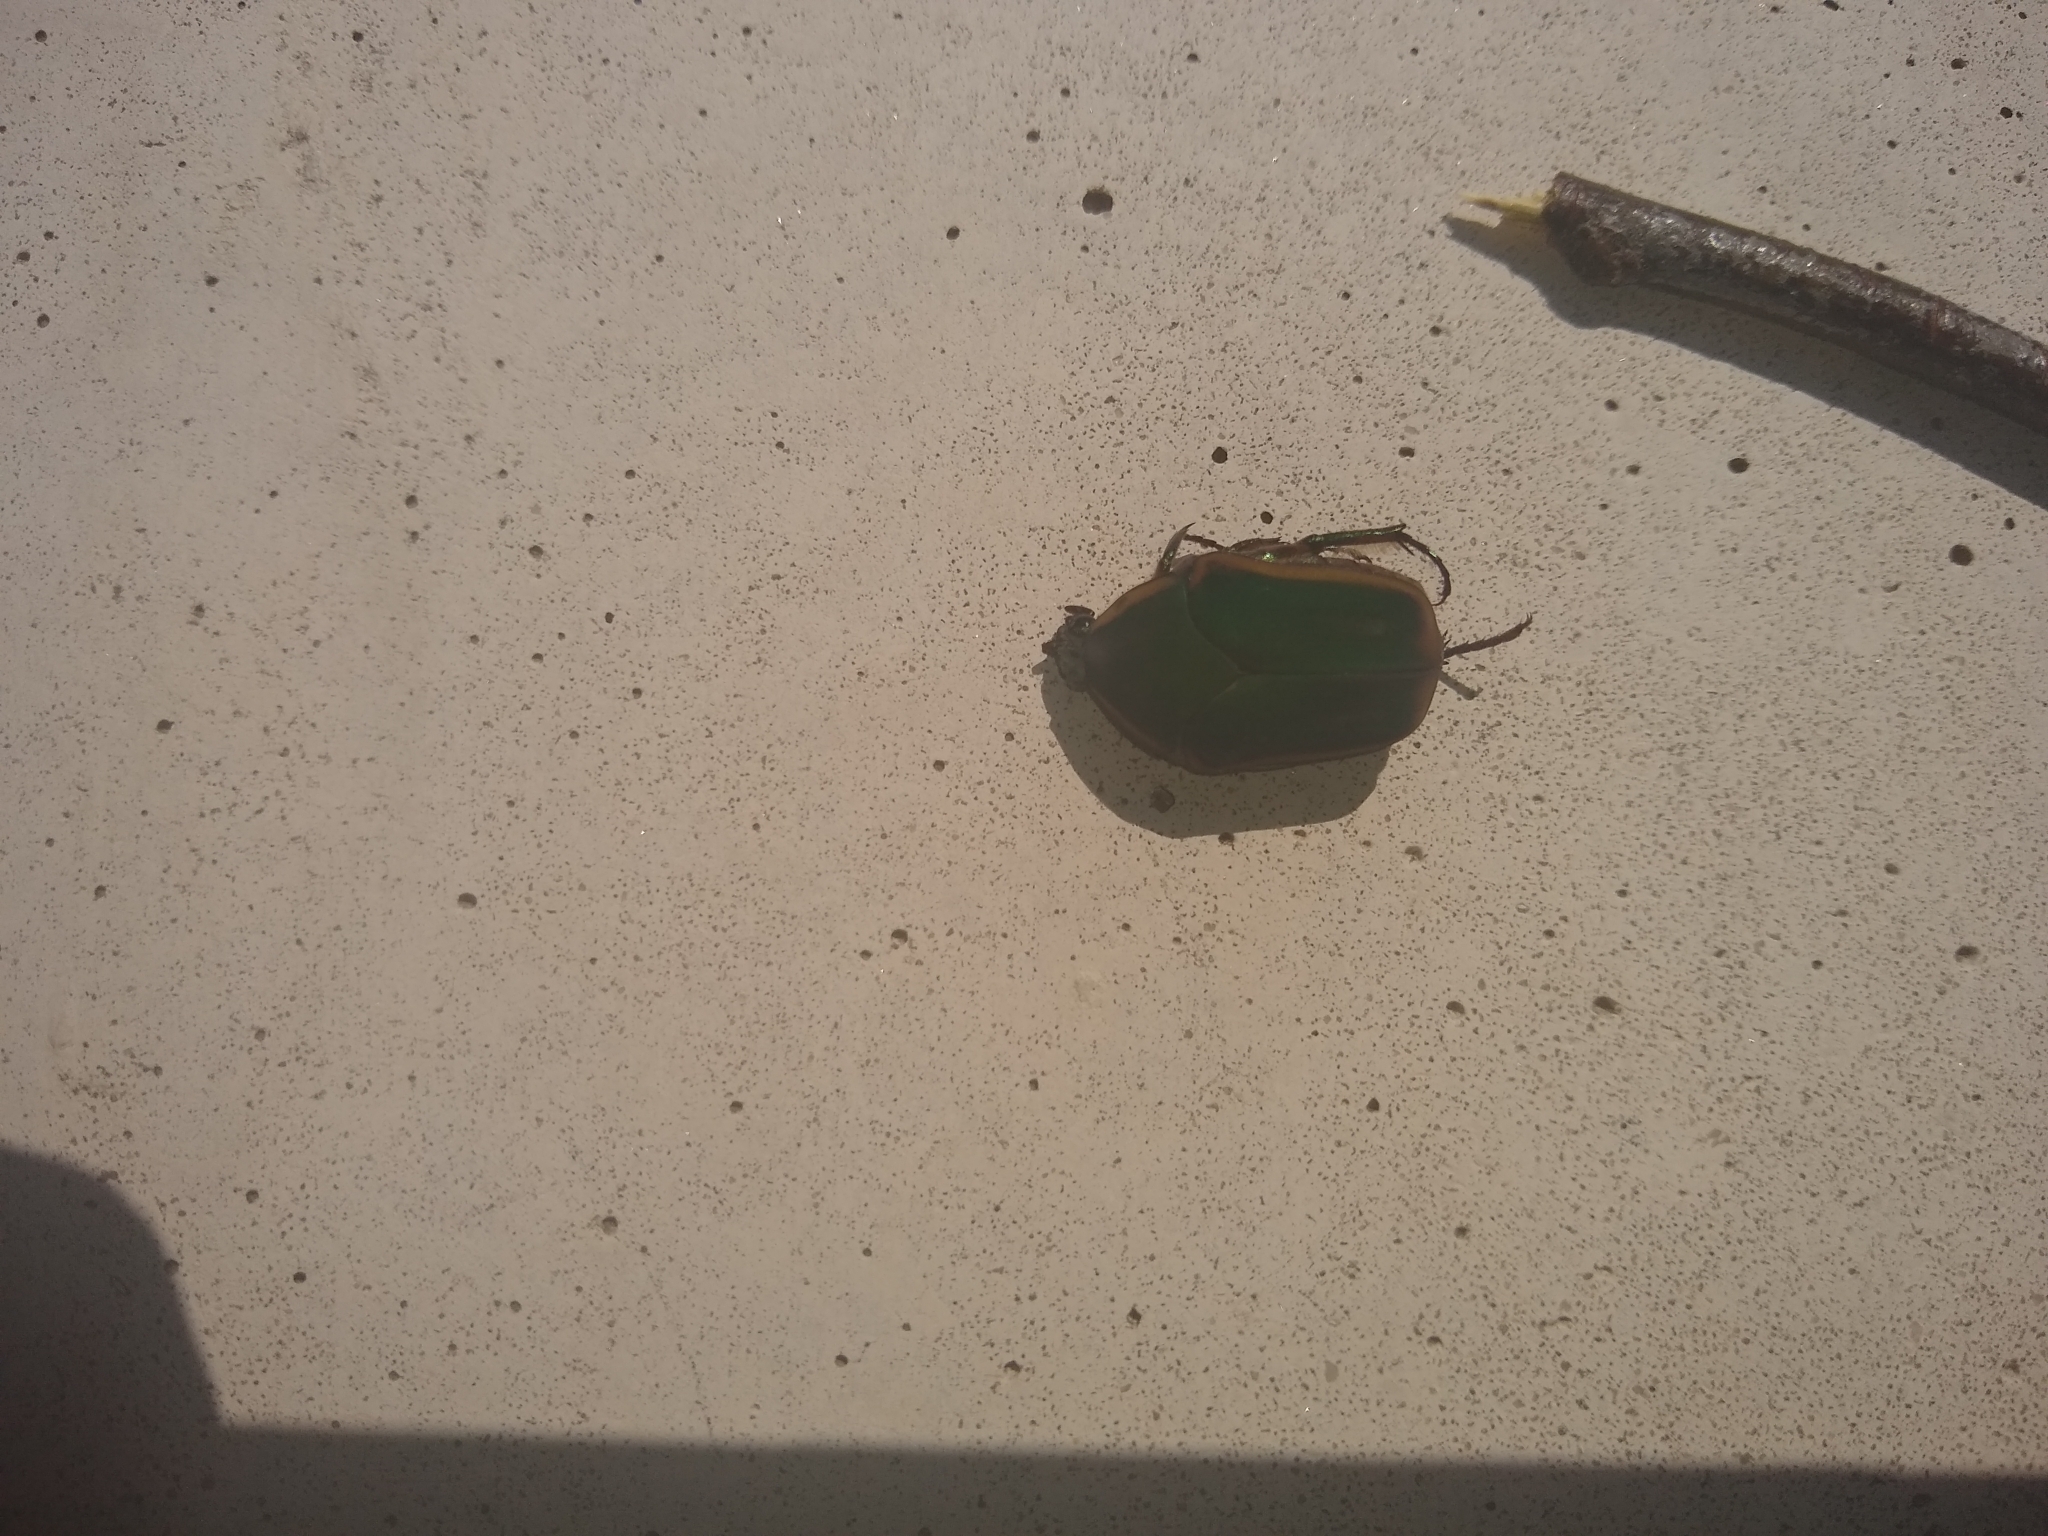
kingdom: Animalia
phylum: Arthropoda
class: Insecta
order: Coleoptera
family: Scarabaeidae
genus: Cotinis
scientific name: Cotinis nitida
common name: Common green june beetle
